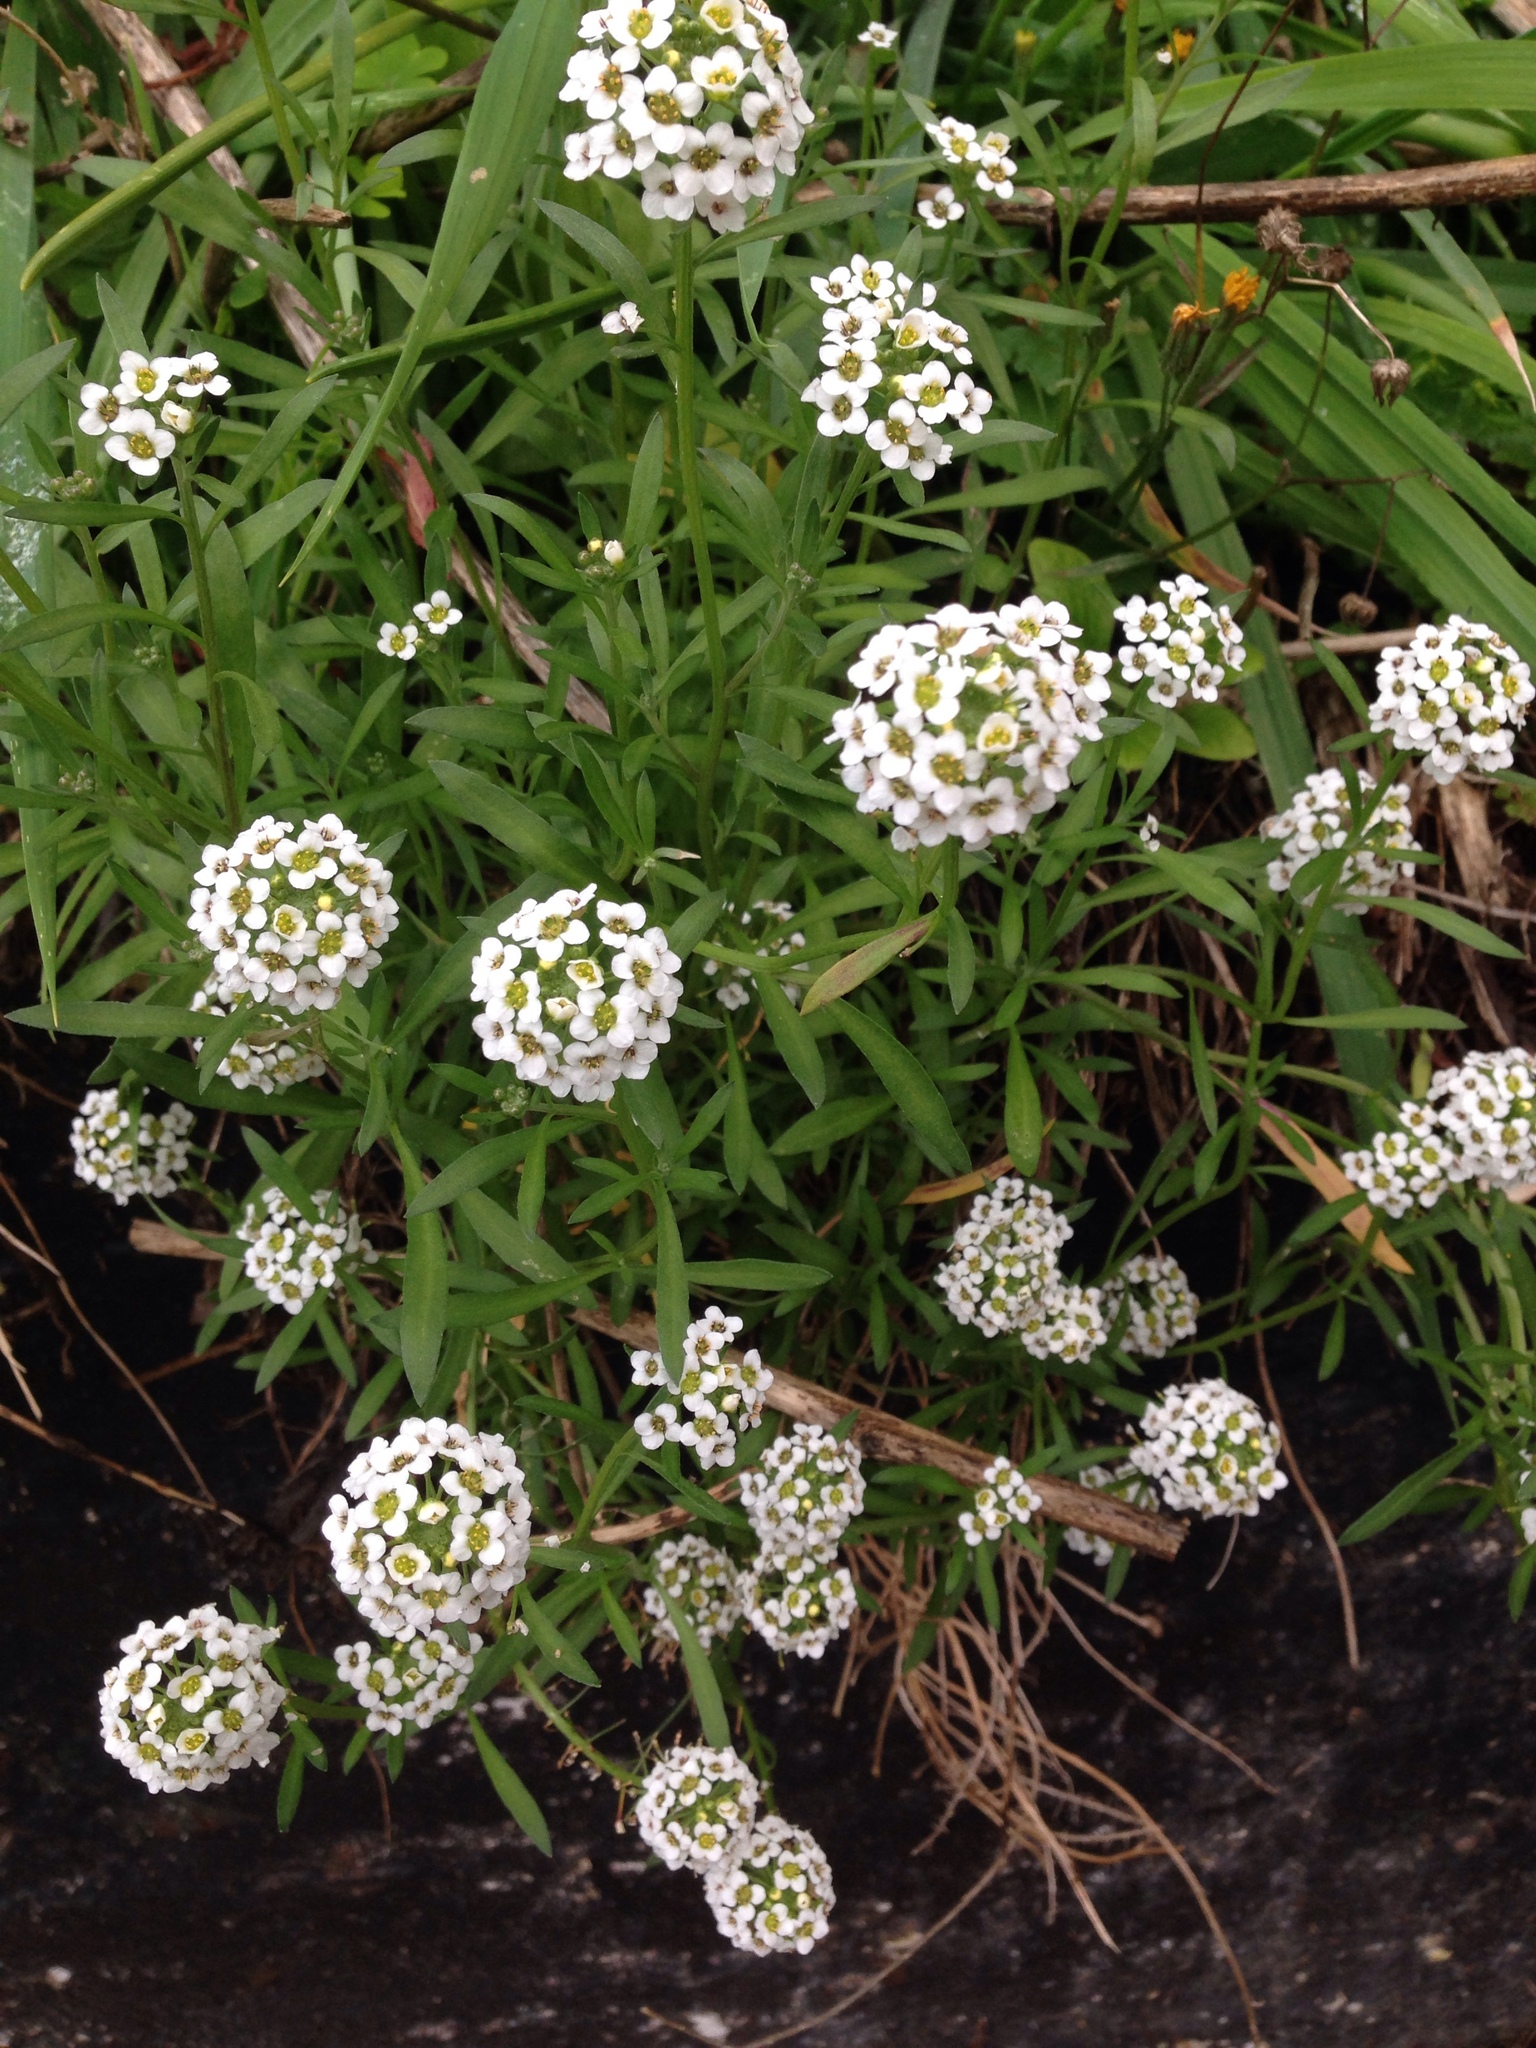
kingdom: Plantae
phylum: Tracheophyta
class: Magnoliopsida
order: Brassicales
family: Brassicaceae
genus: Lobularia
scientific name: Lobularia maritima
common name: Sweet alison
